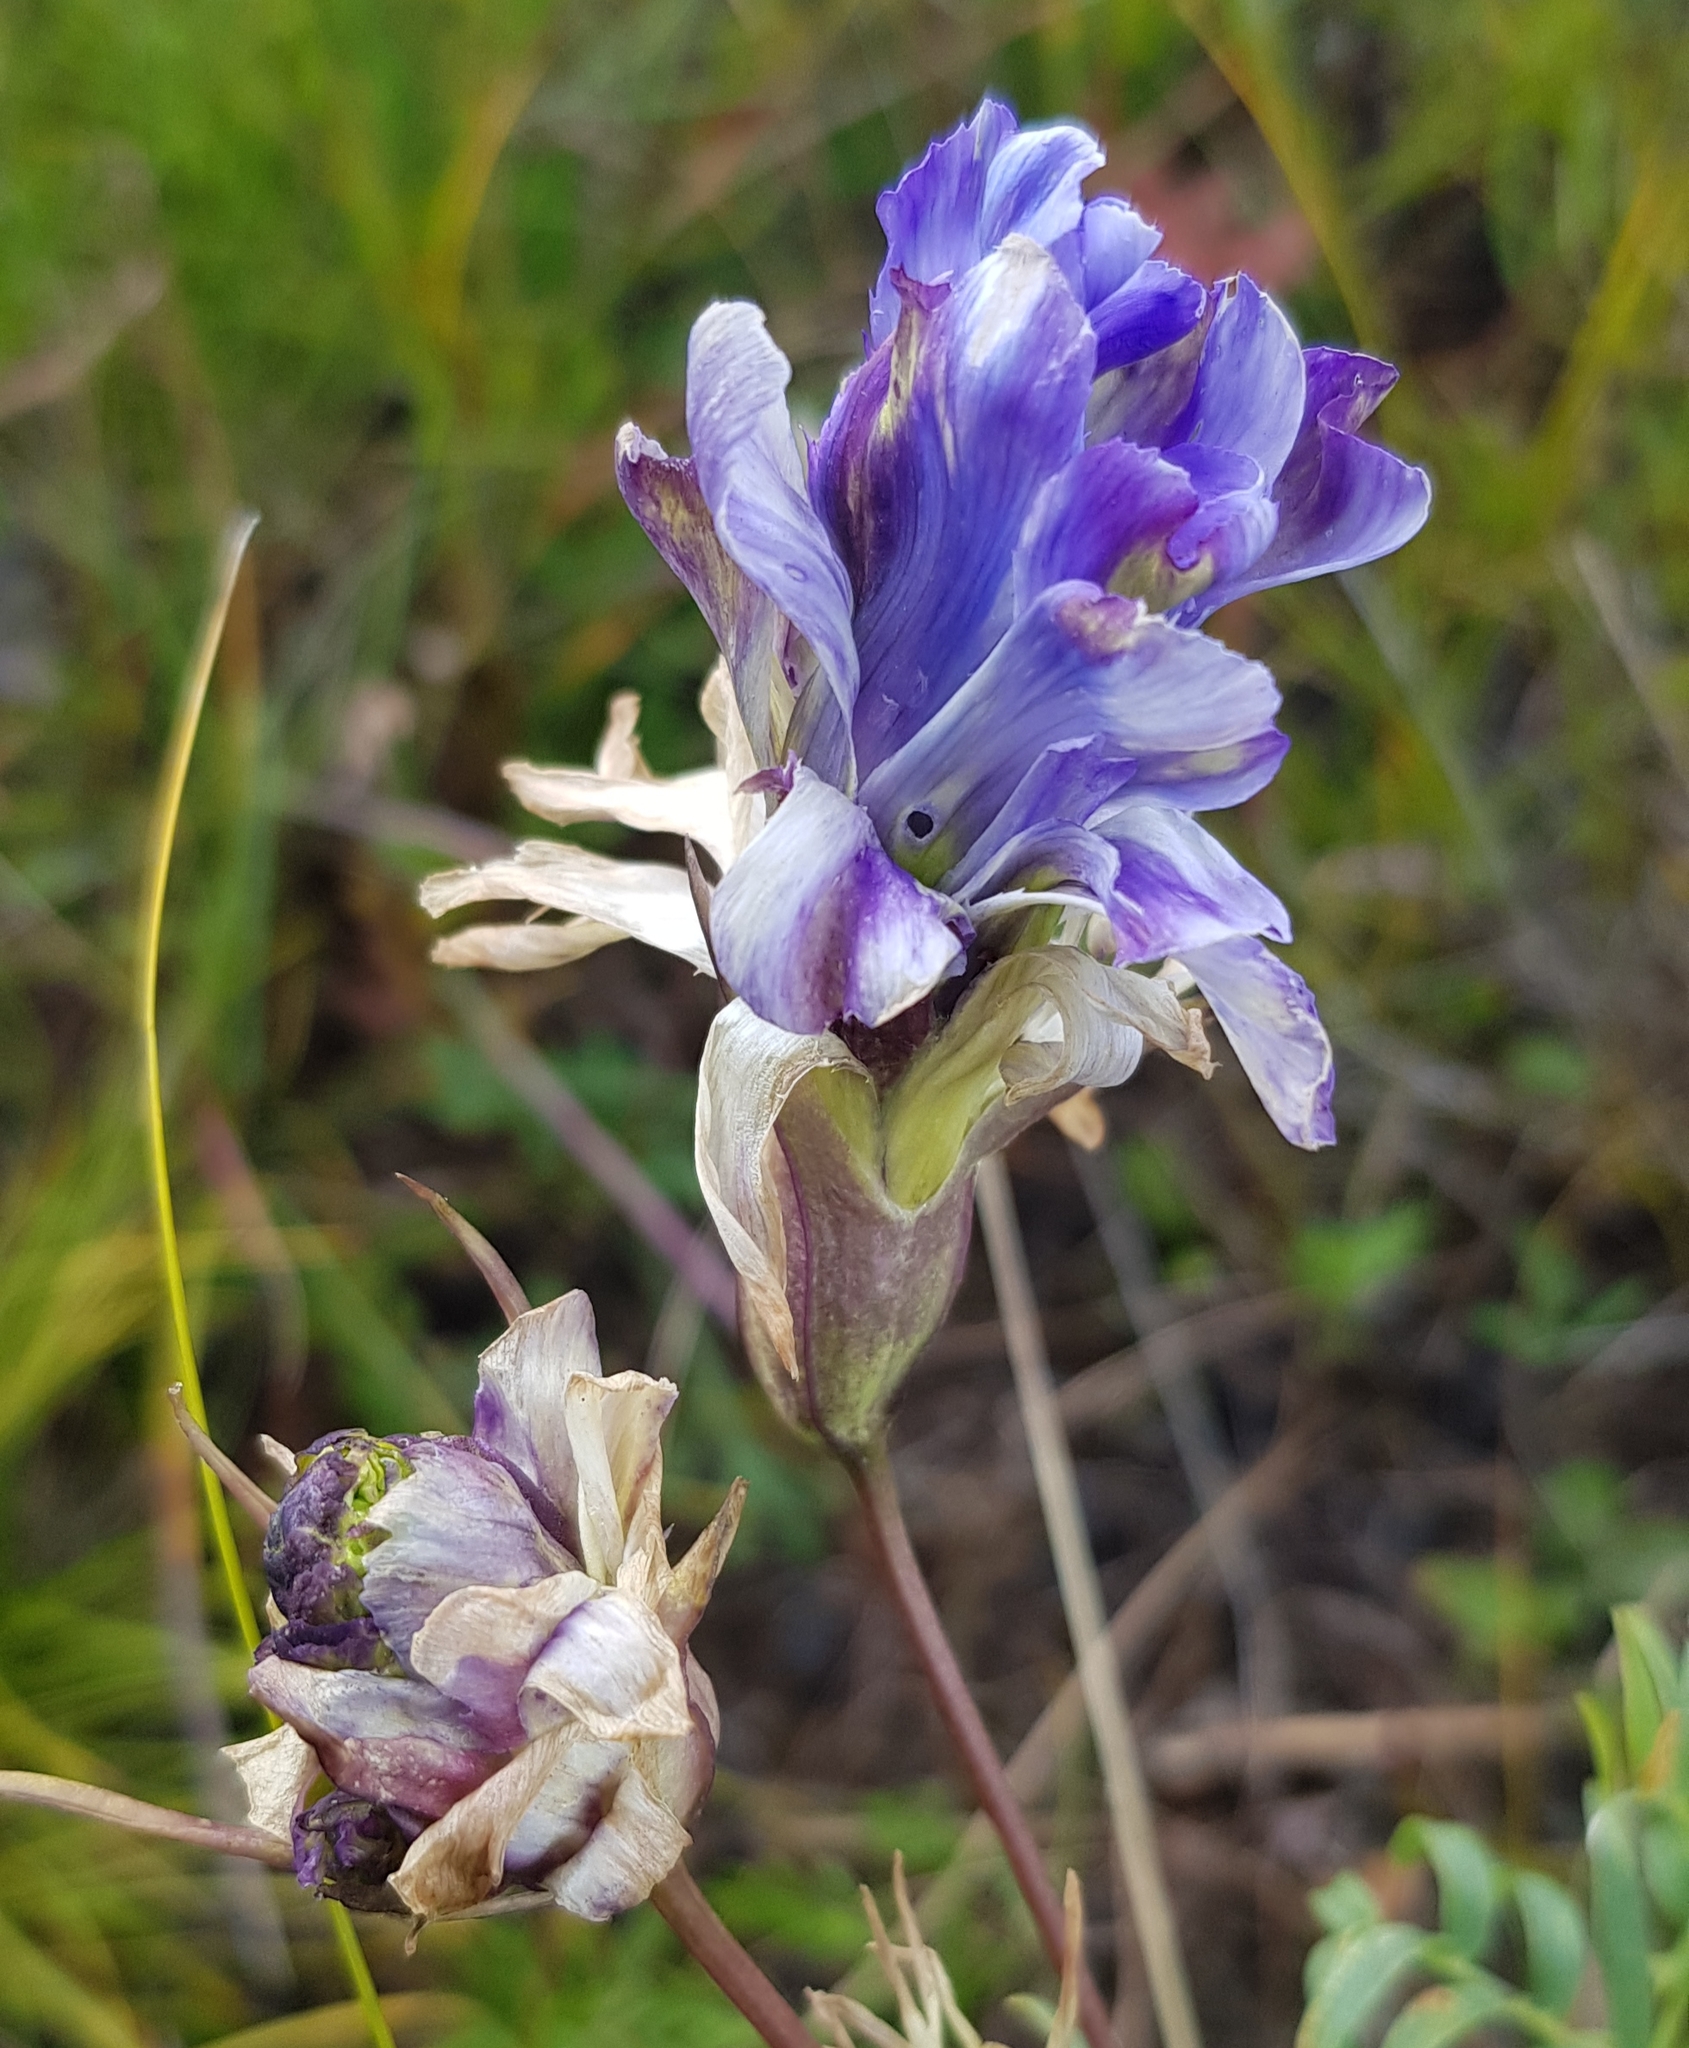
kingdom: Plantae
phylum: Tracheophyta
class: Magnoliopsida
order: Gentianales
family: Gentianaceae
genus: Gentiana
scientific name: Gentiana decumbens
